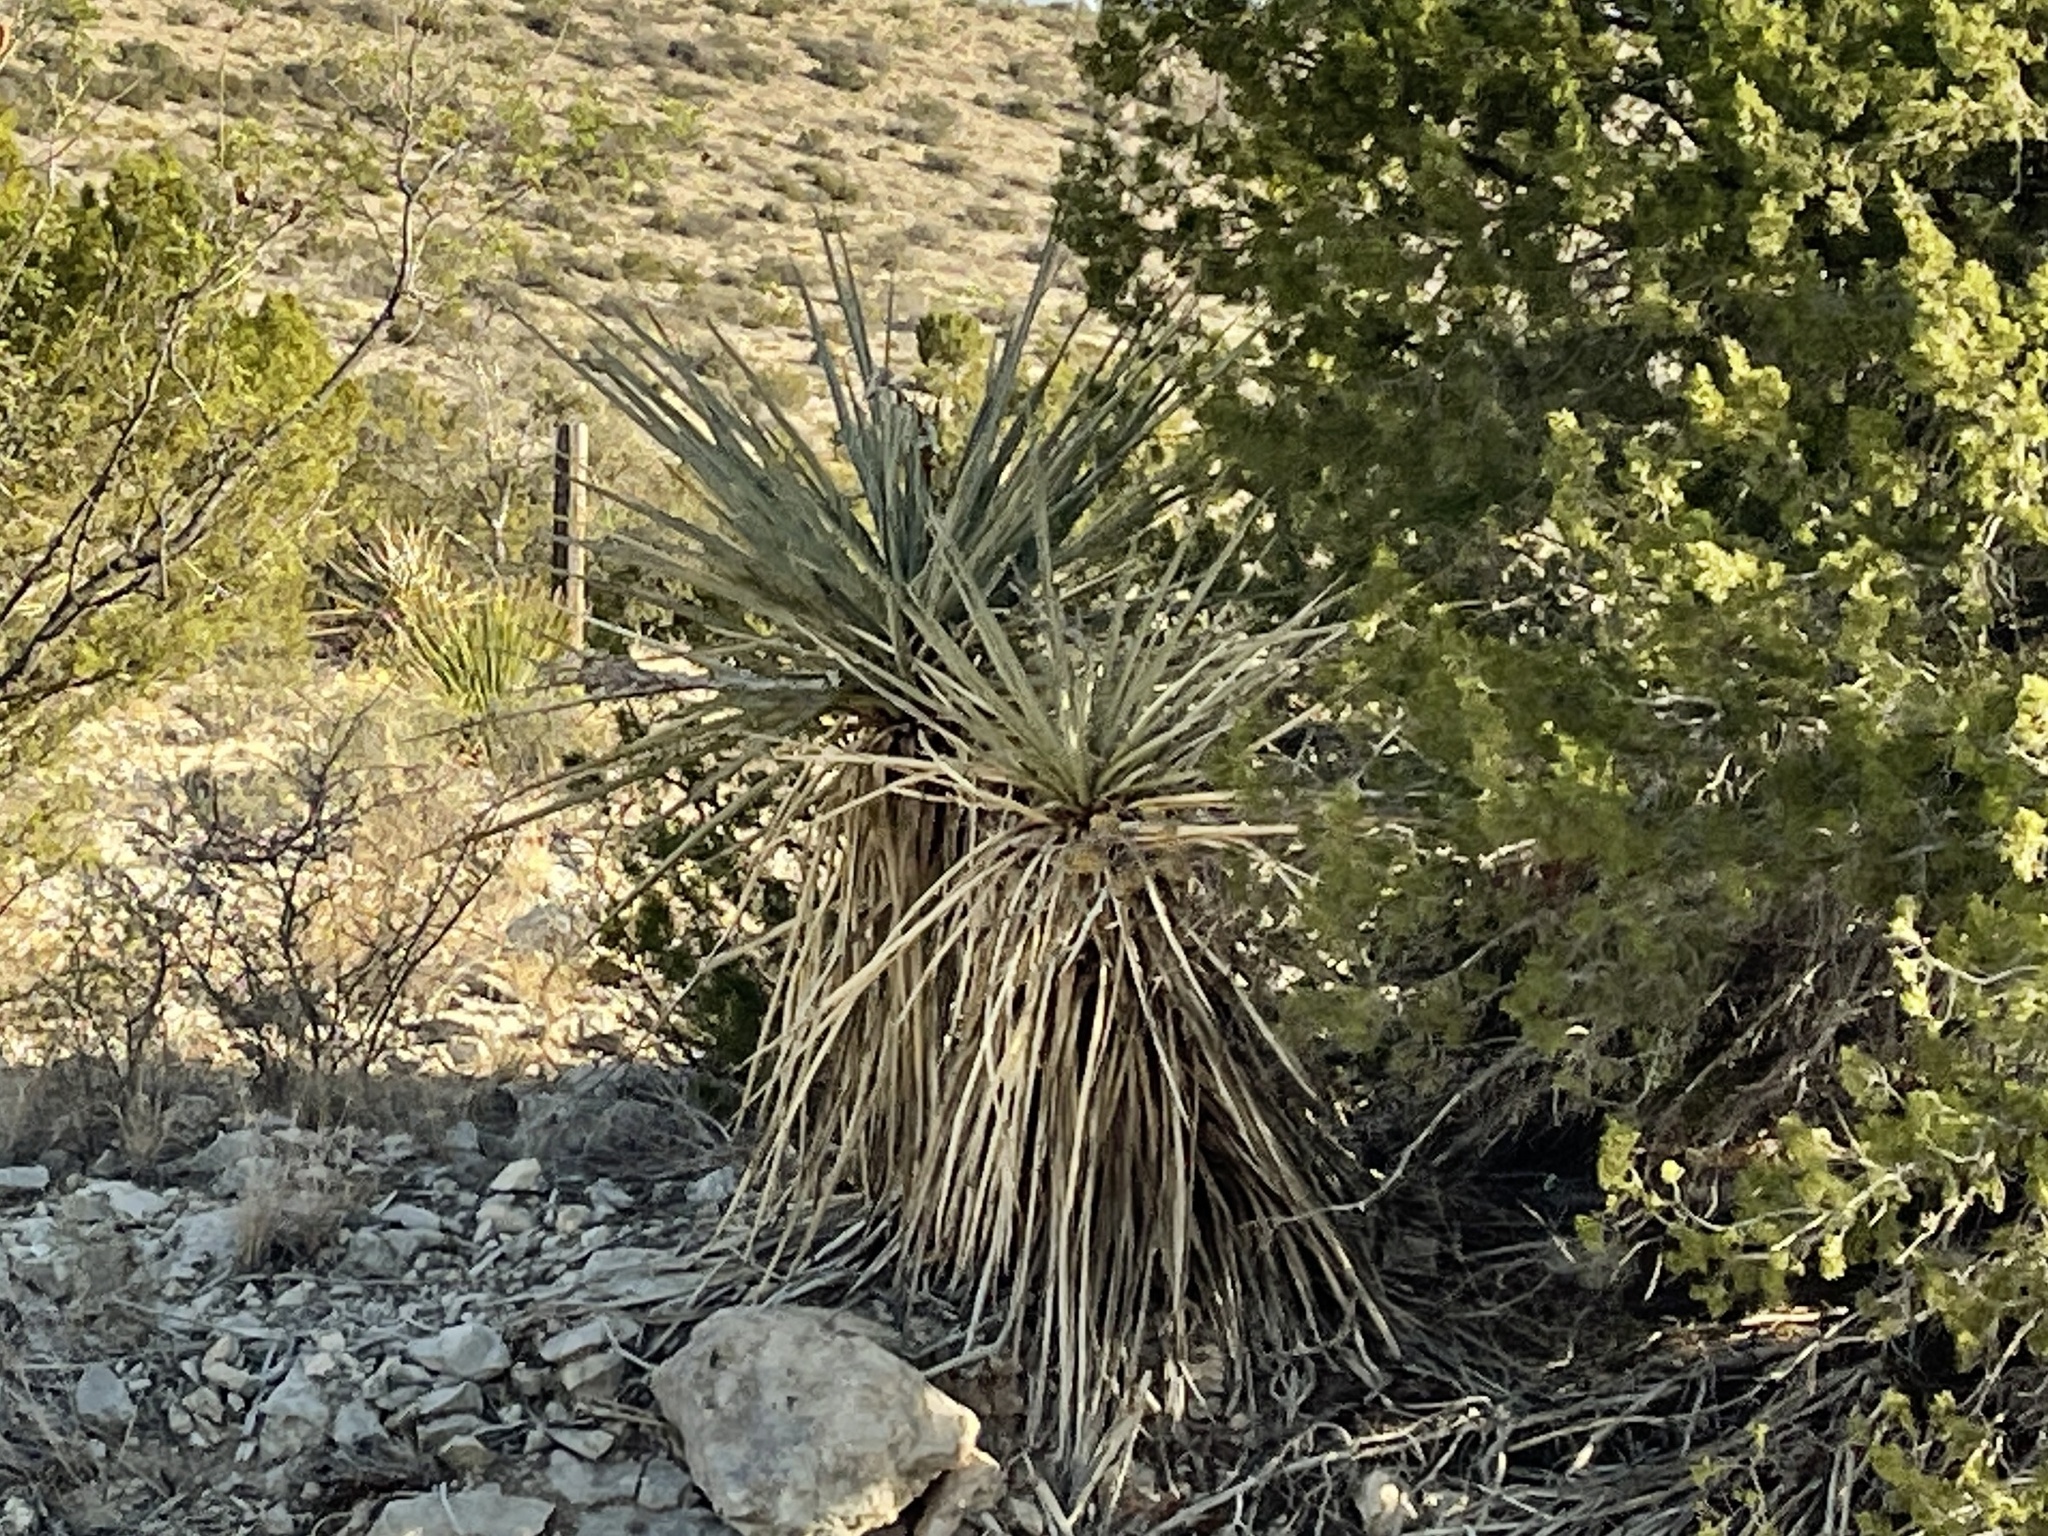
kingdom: Plantae
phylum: Tracheophyta
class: Liliopsida
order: Asparagales
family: Asparagaceae
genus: Yucca
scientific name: Yucca treculiana
